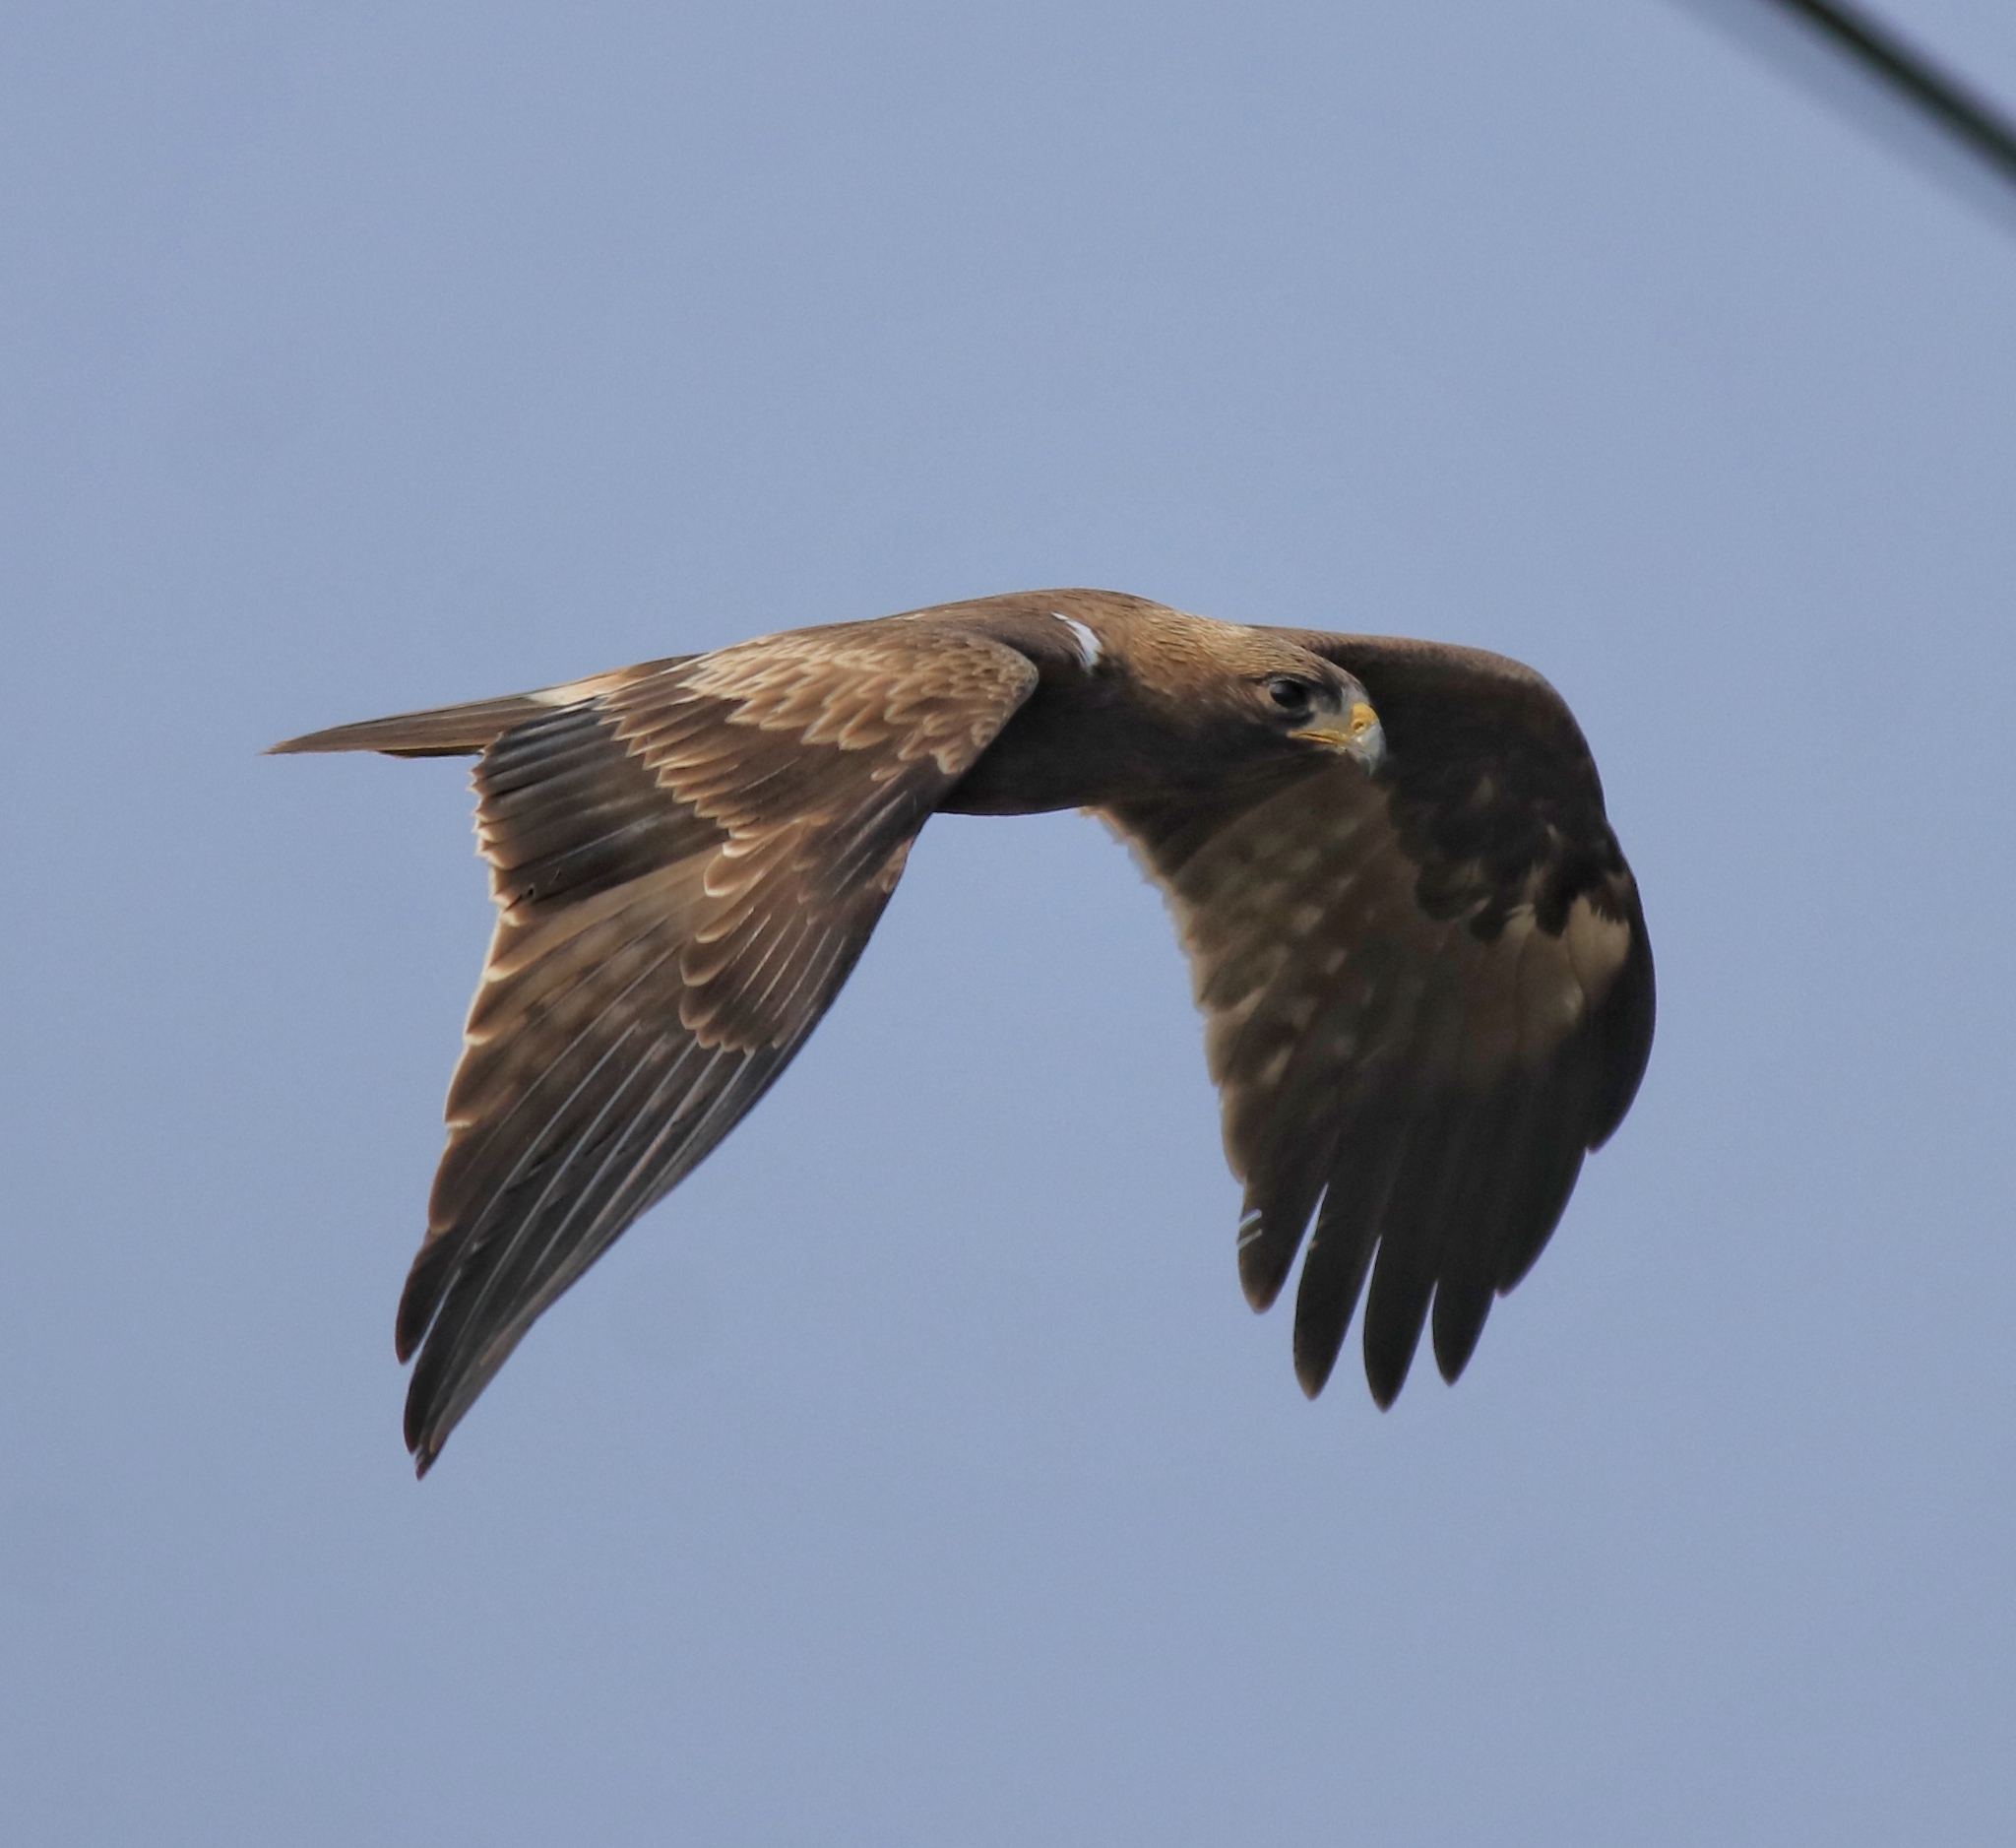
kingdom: Animalia
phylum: Chordata
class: Aves
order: Accipitriformes
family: Accipitridae
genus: Hieraaetus
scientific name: Hieraaetus pennatus
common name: Booted eagle
